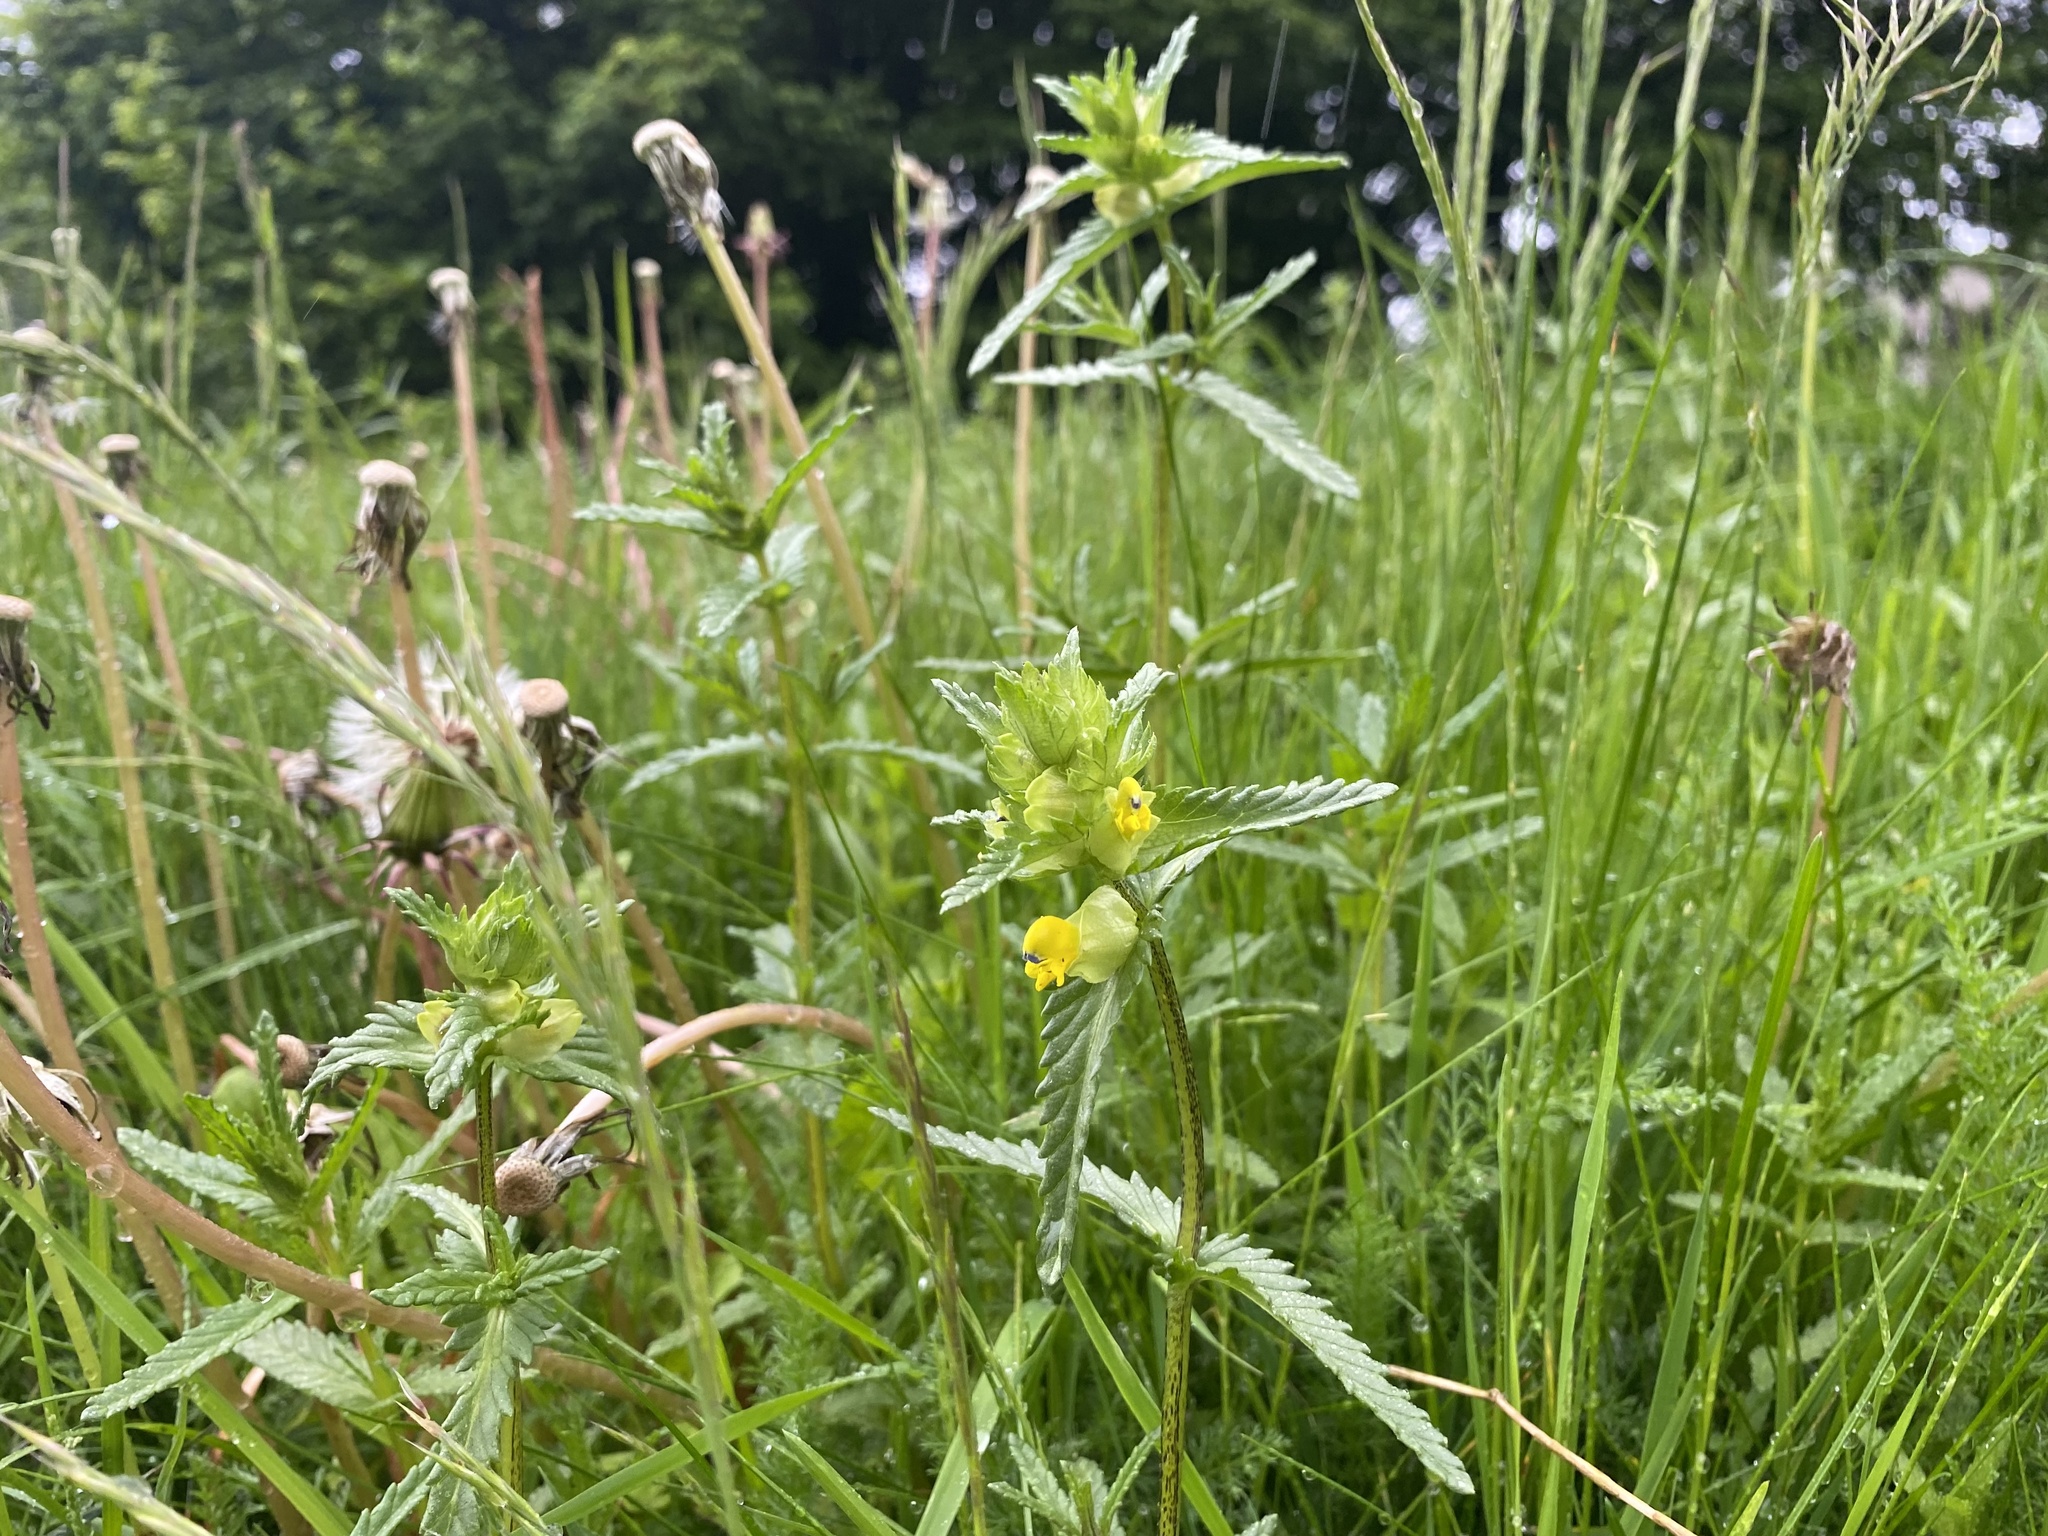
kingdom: Plantae
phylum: Tracheophyta
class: Magnoliopsida
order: Lamiales
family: Orobanchaceae
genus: Rhinanthus
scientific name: Rhinanthus minor
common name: Yellow-rattle
